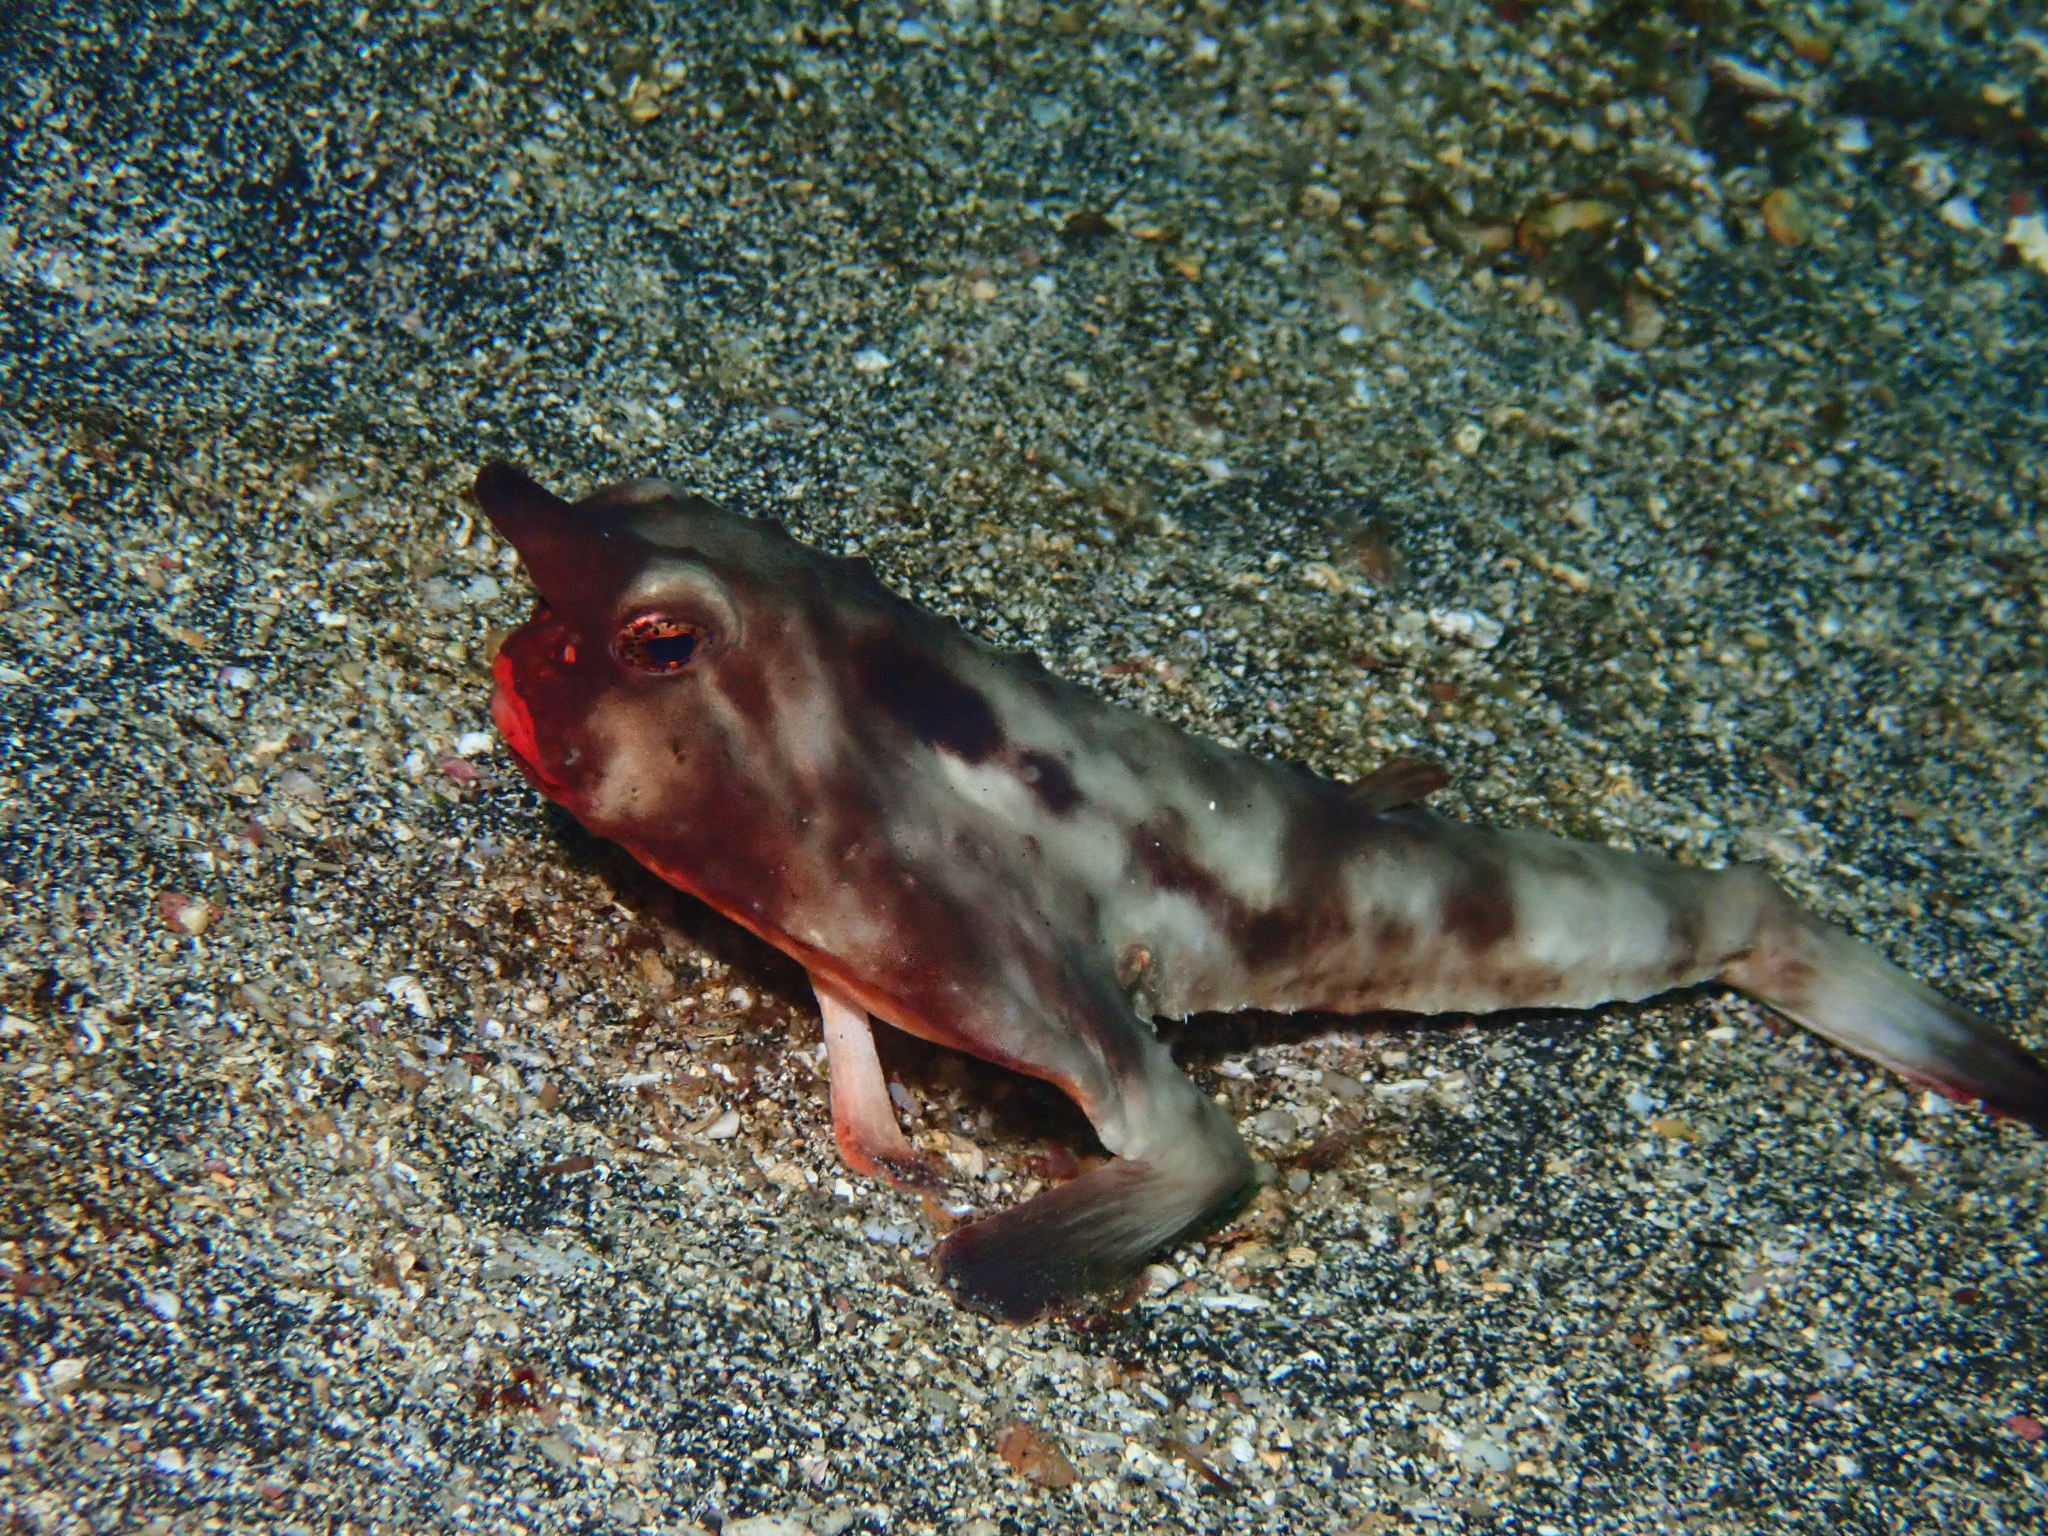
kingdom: Animalia
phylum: Chordata
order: Lophiiformes
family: Ogcocephalidae
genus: Ogcocephalus
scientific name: Ogcocephalus darwini
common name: Galápagos batfish
